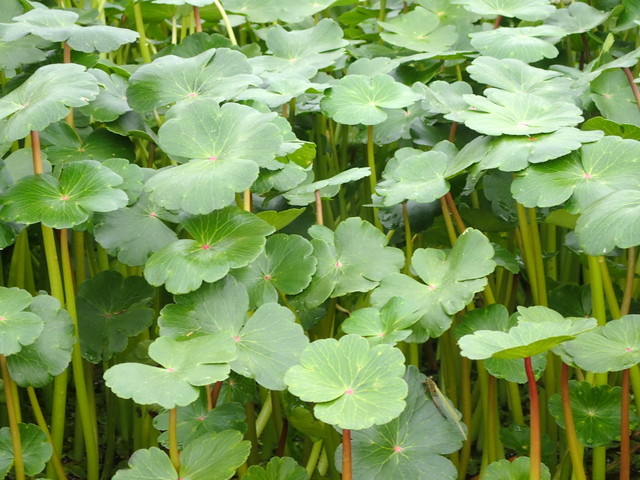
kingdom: Plantae
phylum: Tracheophyta
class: Magnoliopsida
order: Apiales
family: Araliaceae
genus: Hydrocotyle
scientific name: Hydrocotyle ranunculoides
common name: Floating pennywort
